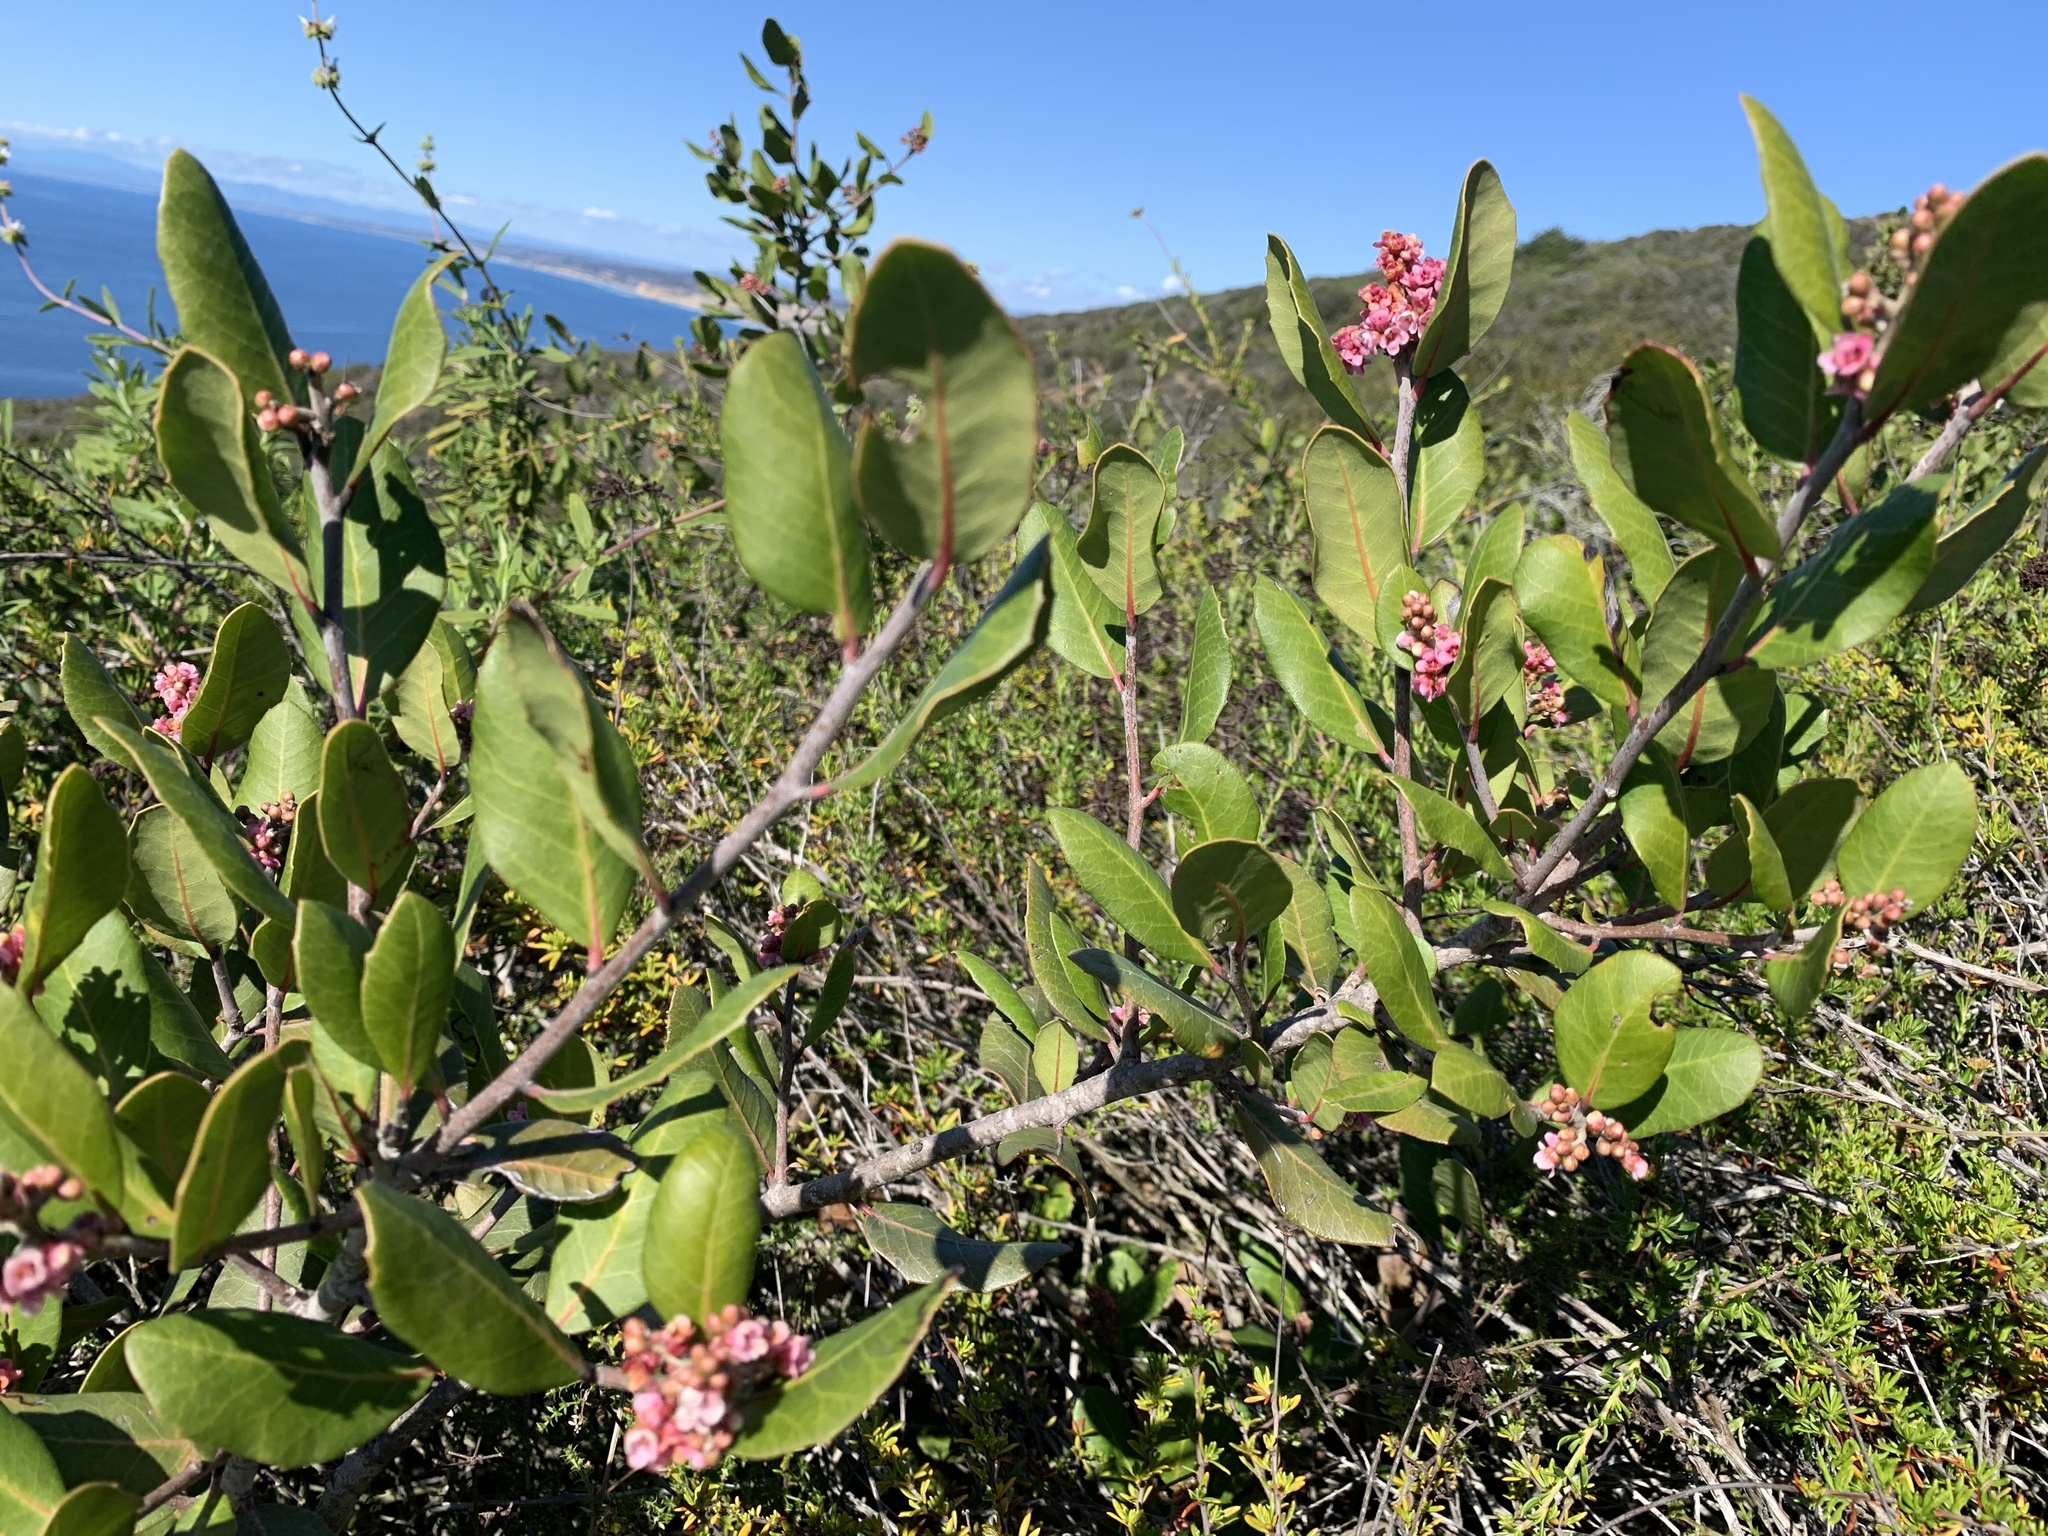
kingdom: Plantae
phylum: Tracheophyta
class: Magnoliopsida
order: Sapindales
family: Anacardiaceae
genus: Rhus
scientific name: Rhus integrifolia
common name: Lemonade sumac
